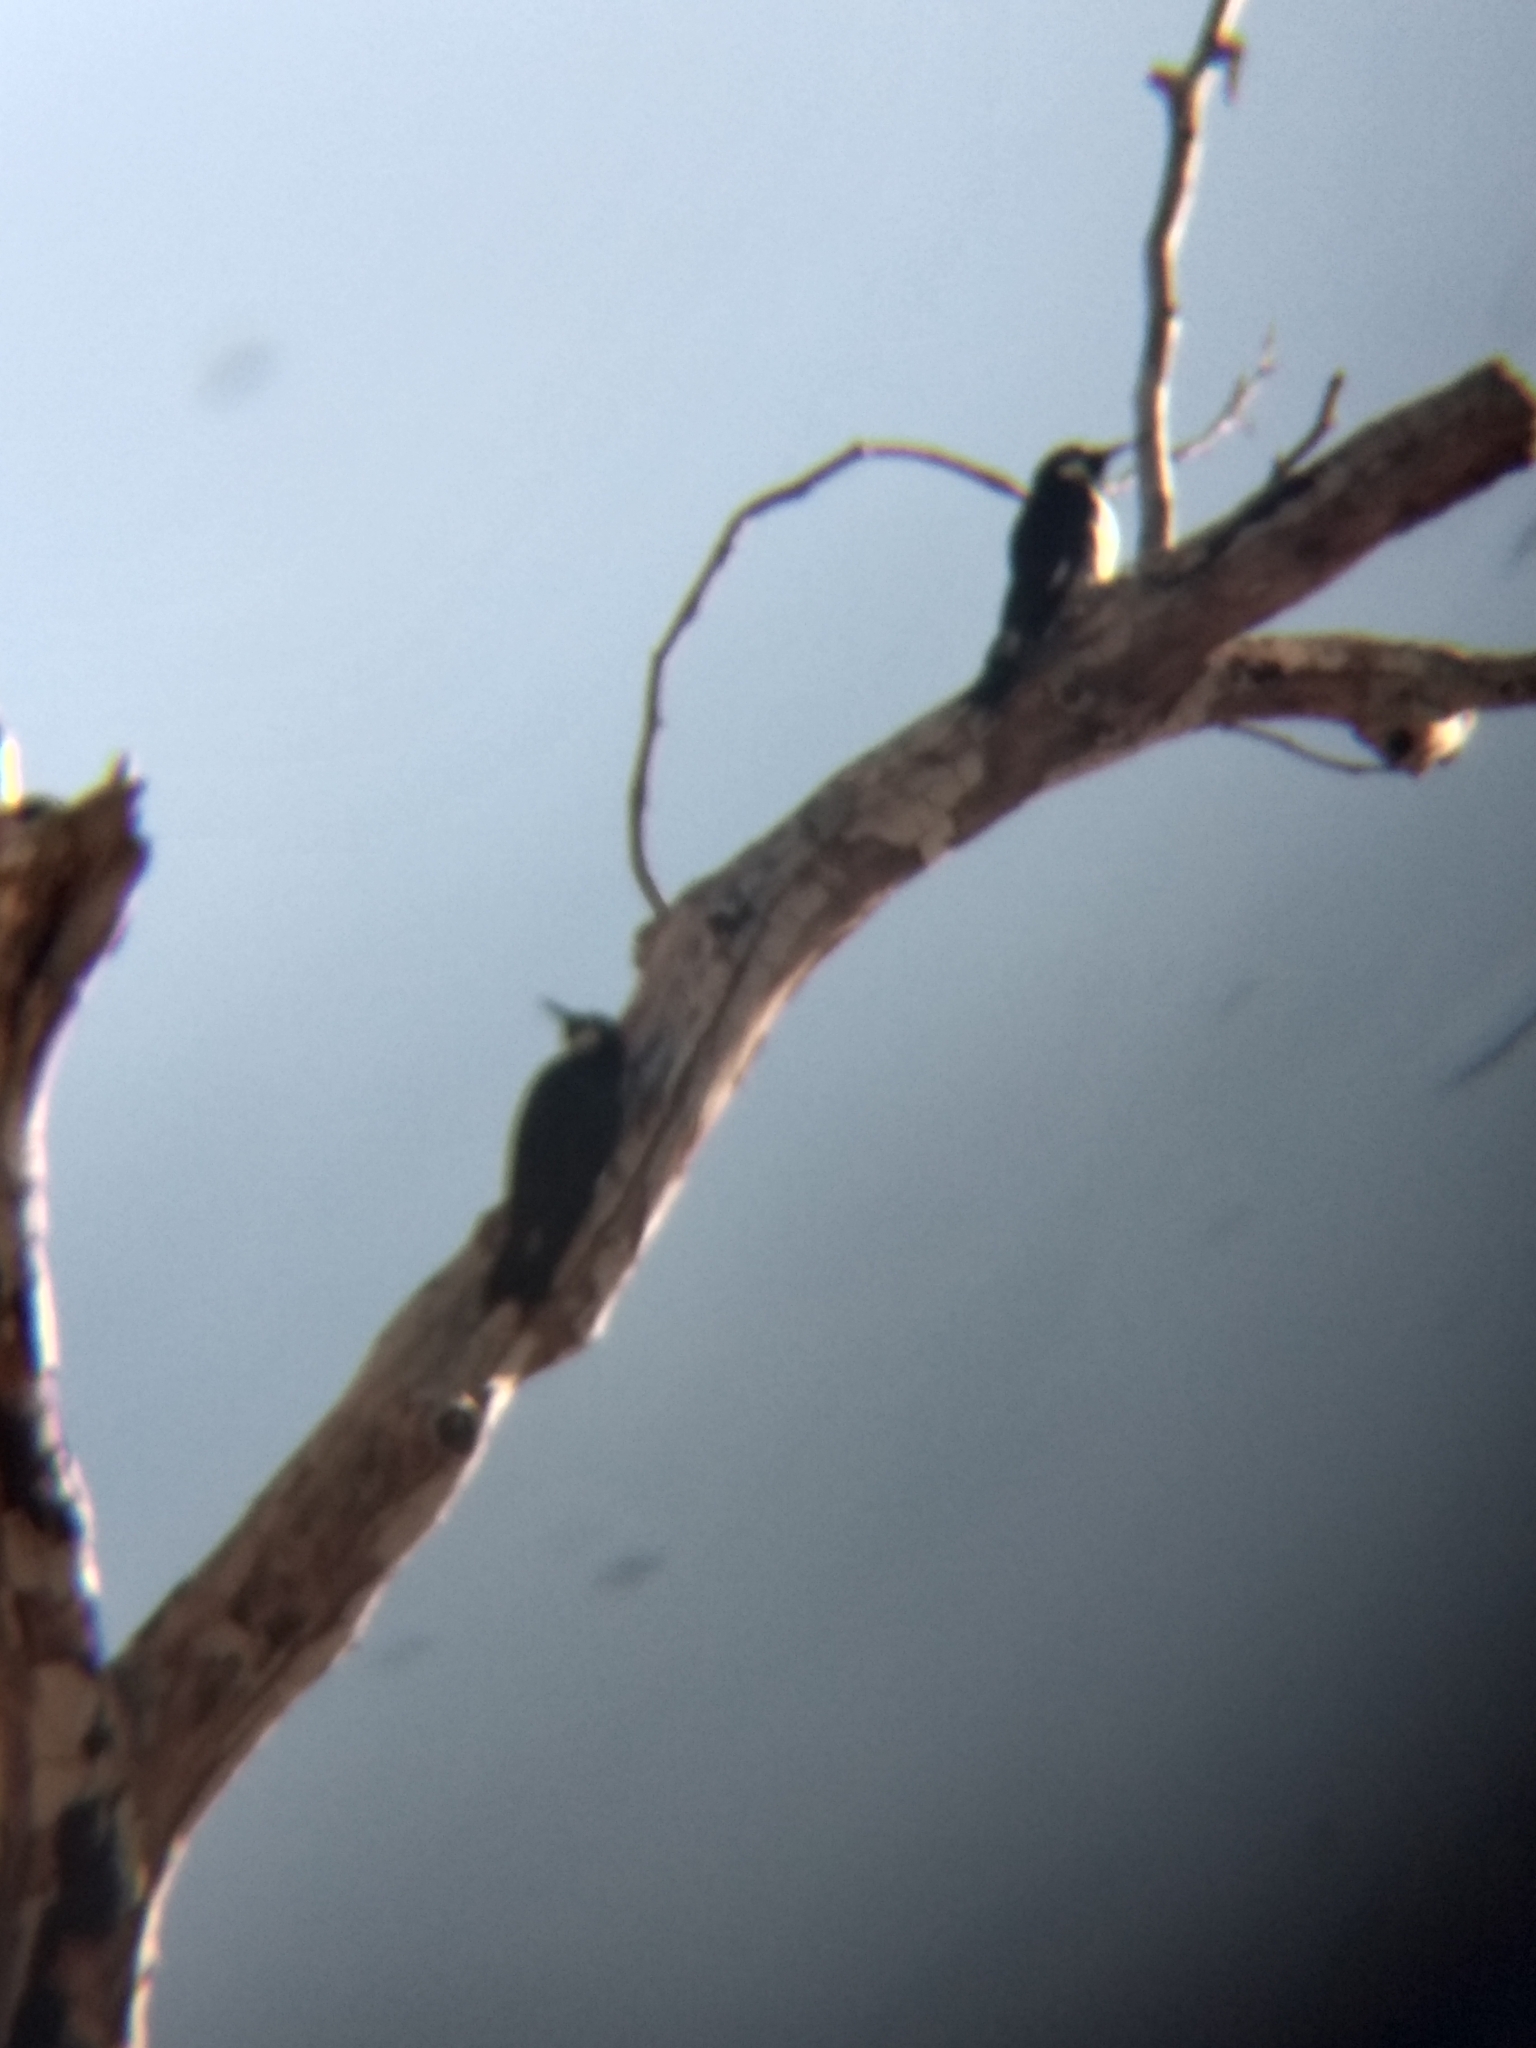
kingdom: Animalia
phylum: Chordata
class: Aves
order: Piciformes
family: Picidae
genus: Melanerpes
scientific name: Melanerpes formicivorus
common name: Acorn woodpecker
